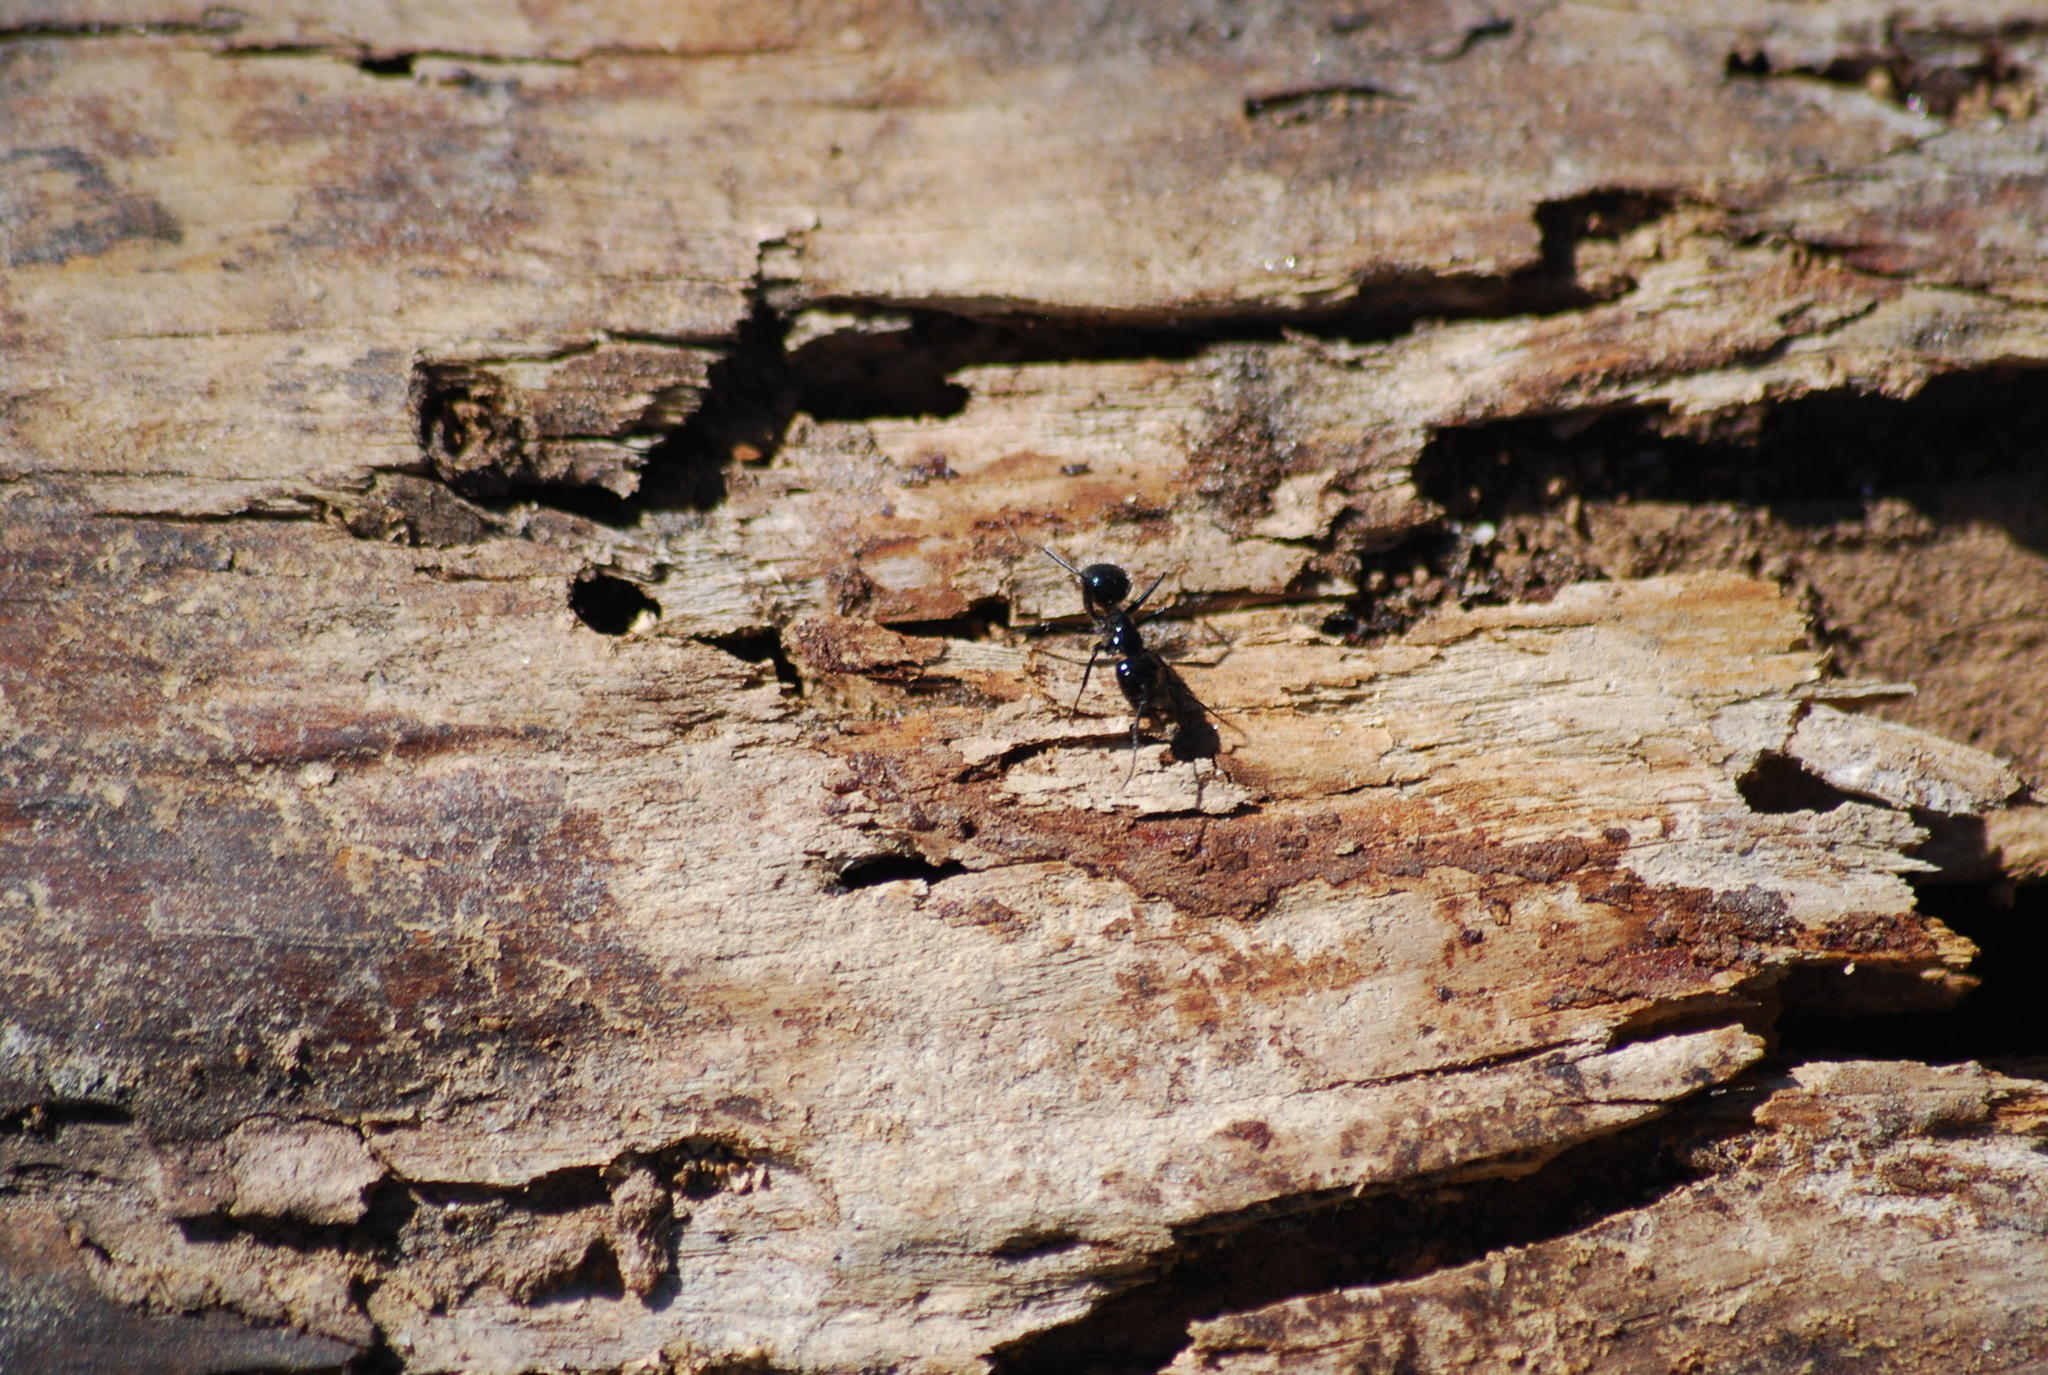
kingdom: Animalia
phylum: Arthropoda
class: Insecta
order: Hymenoptera
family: Formicidae
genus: Camponotus
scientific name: Camponotus
